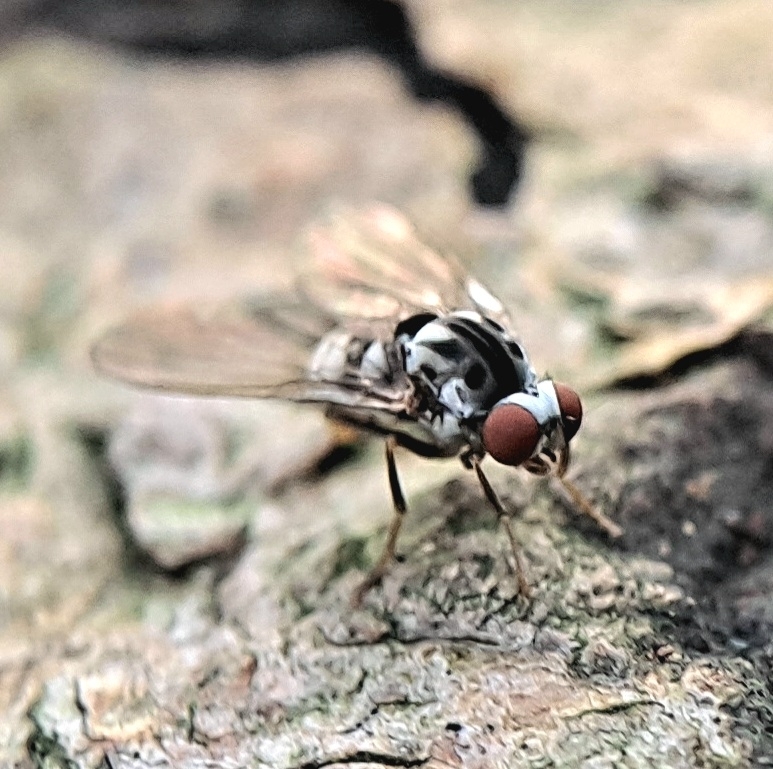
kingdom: Animalia
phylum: Arthropoda
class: Insecta
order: Diptera
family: Platypezidae
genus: Polyporivora
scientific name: Polyporivora picta
